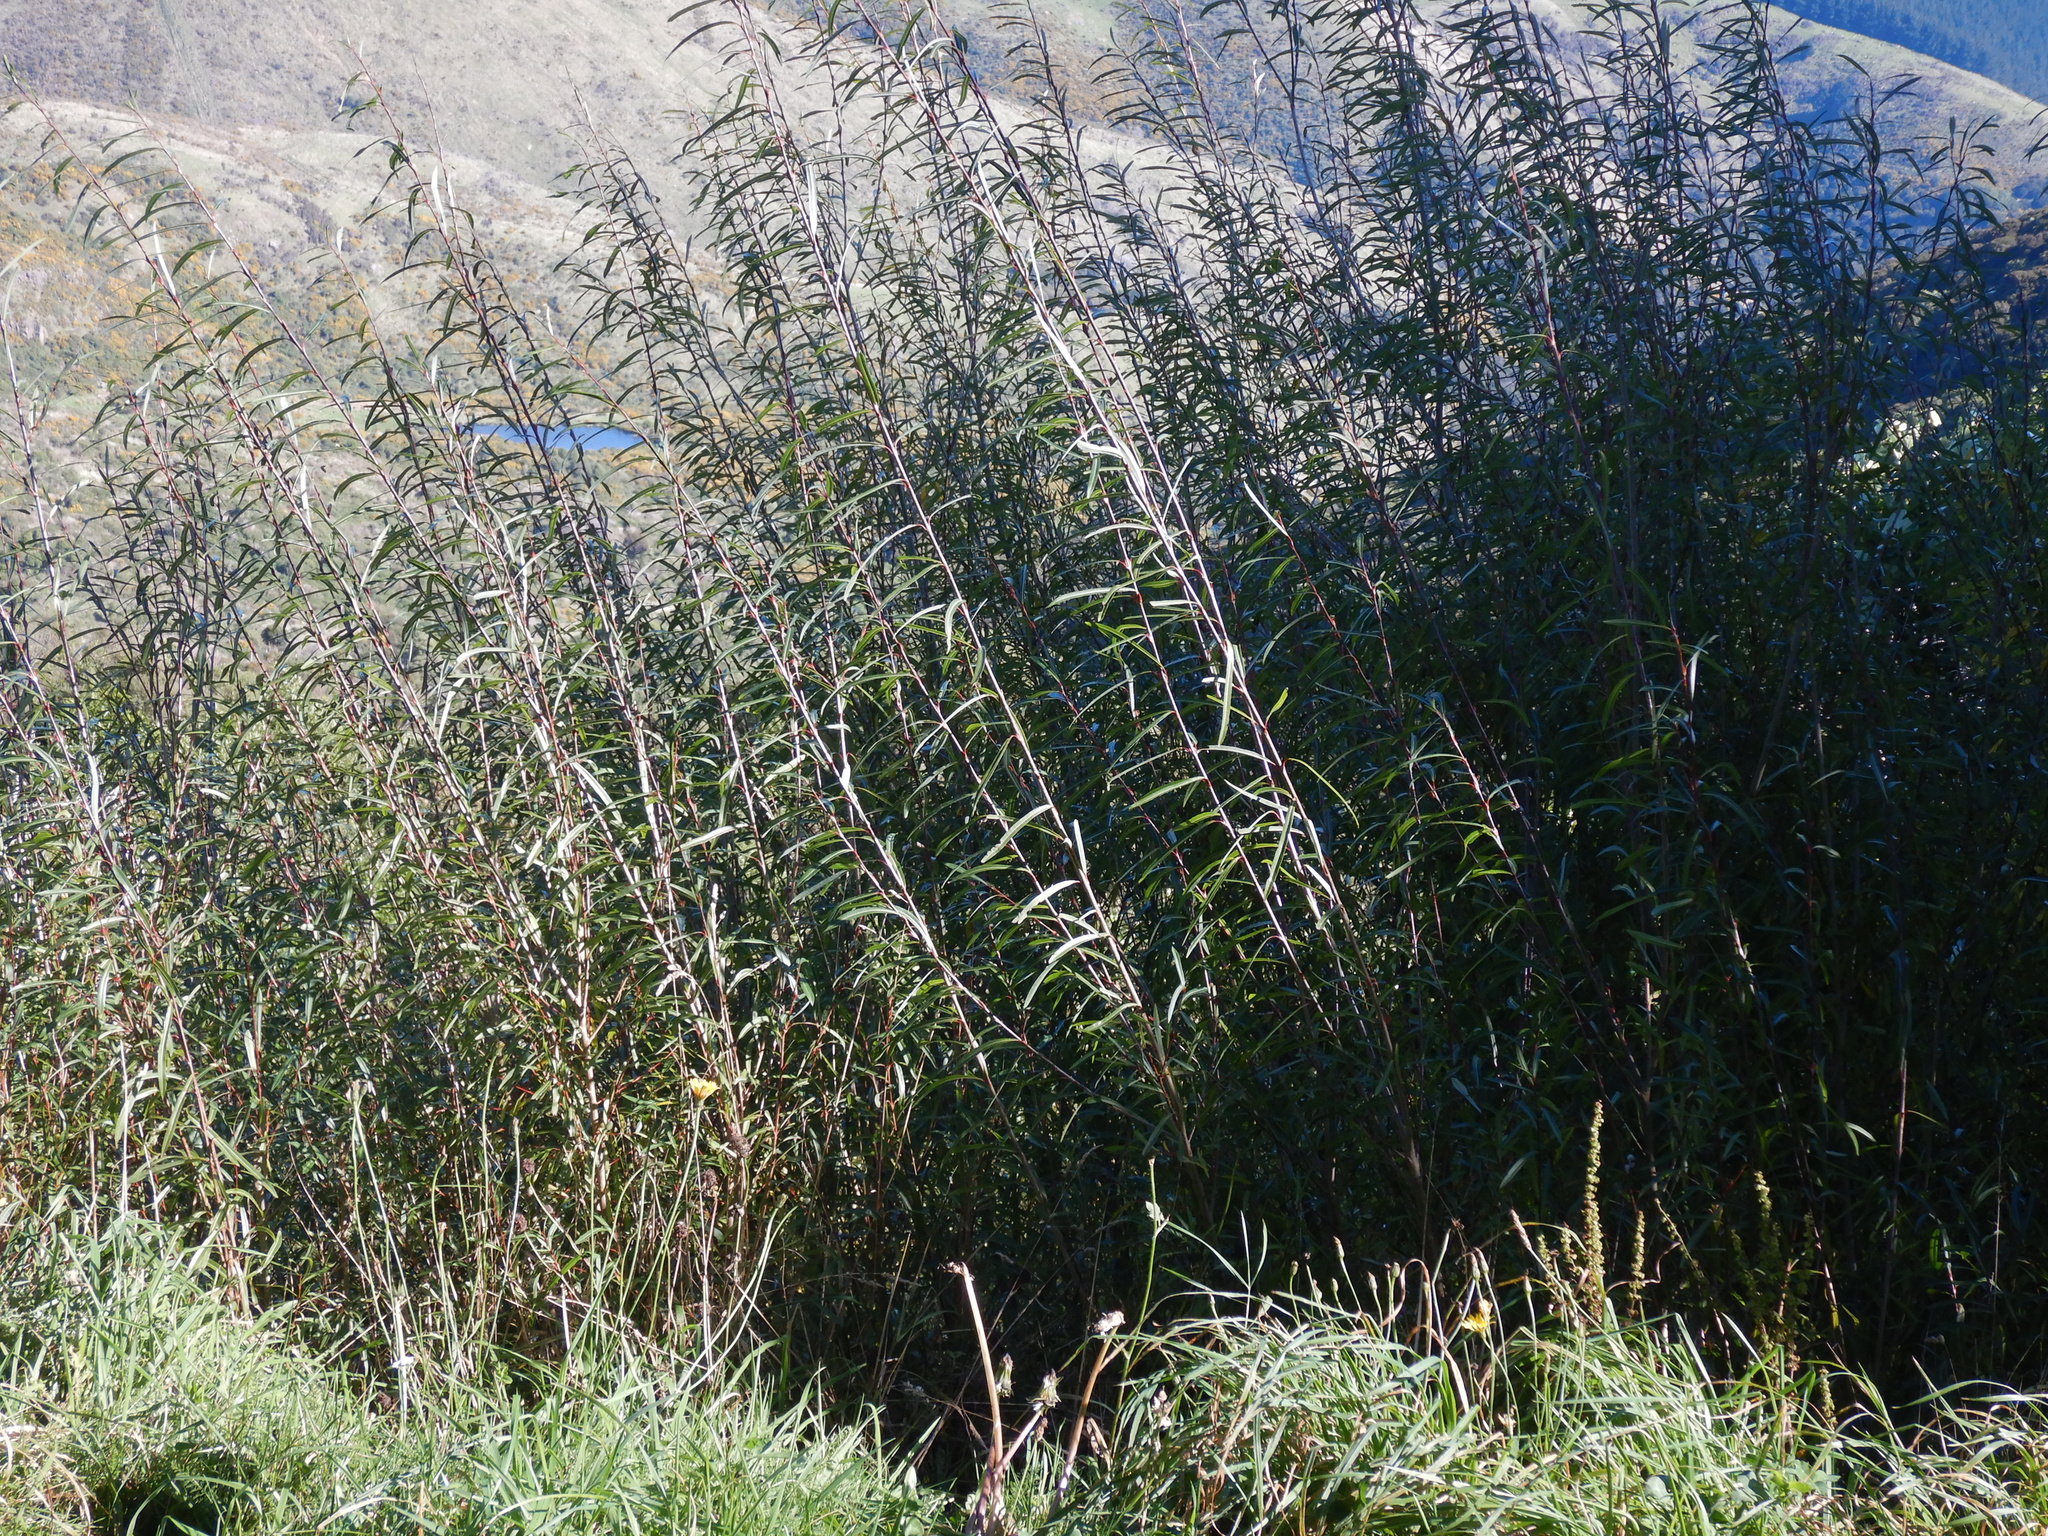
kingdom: Plantae
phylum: Tracheophyta
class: Magnoliopsida
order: Malpighiales
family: Salicaceae
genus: Salix
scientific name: Salix purpurea
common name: Purple willow
